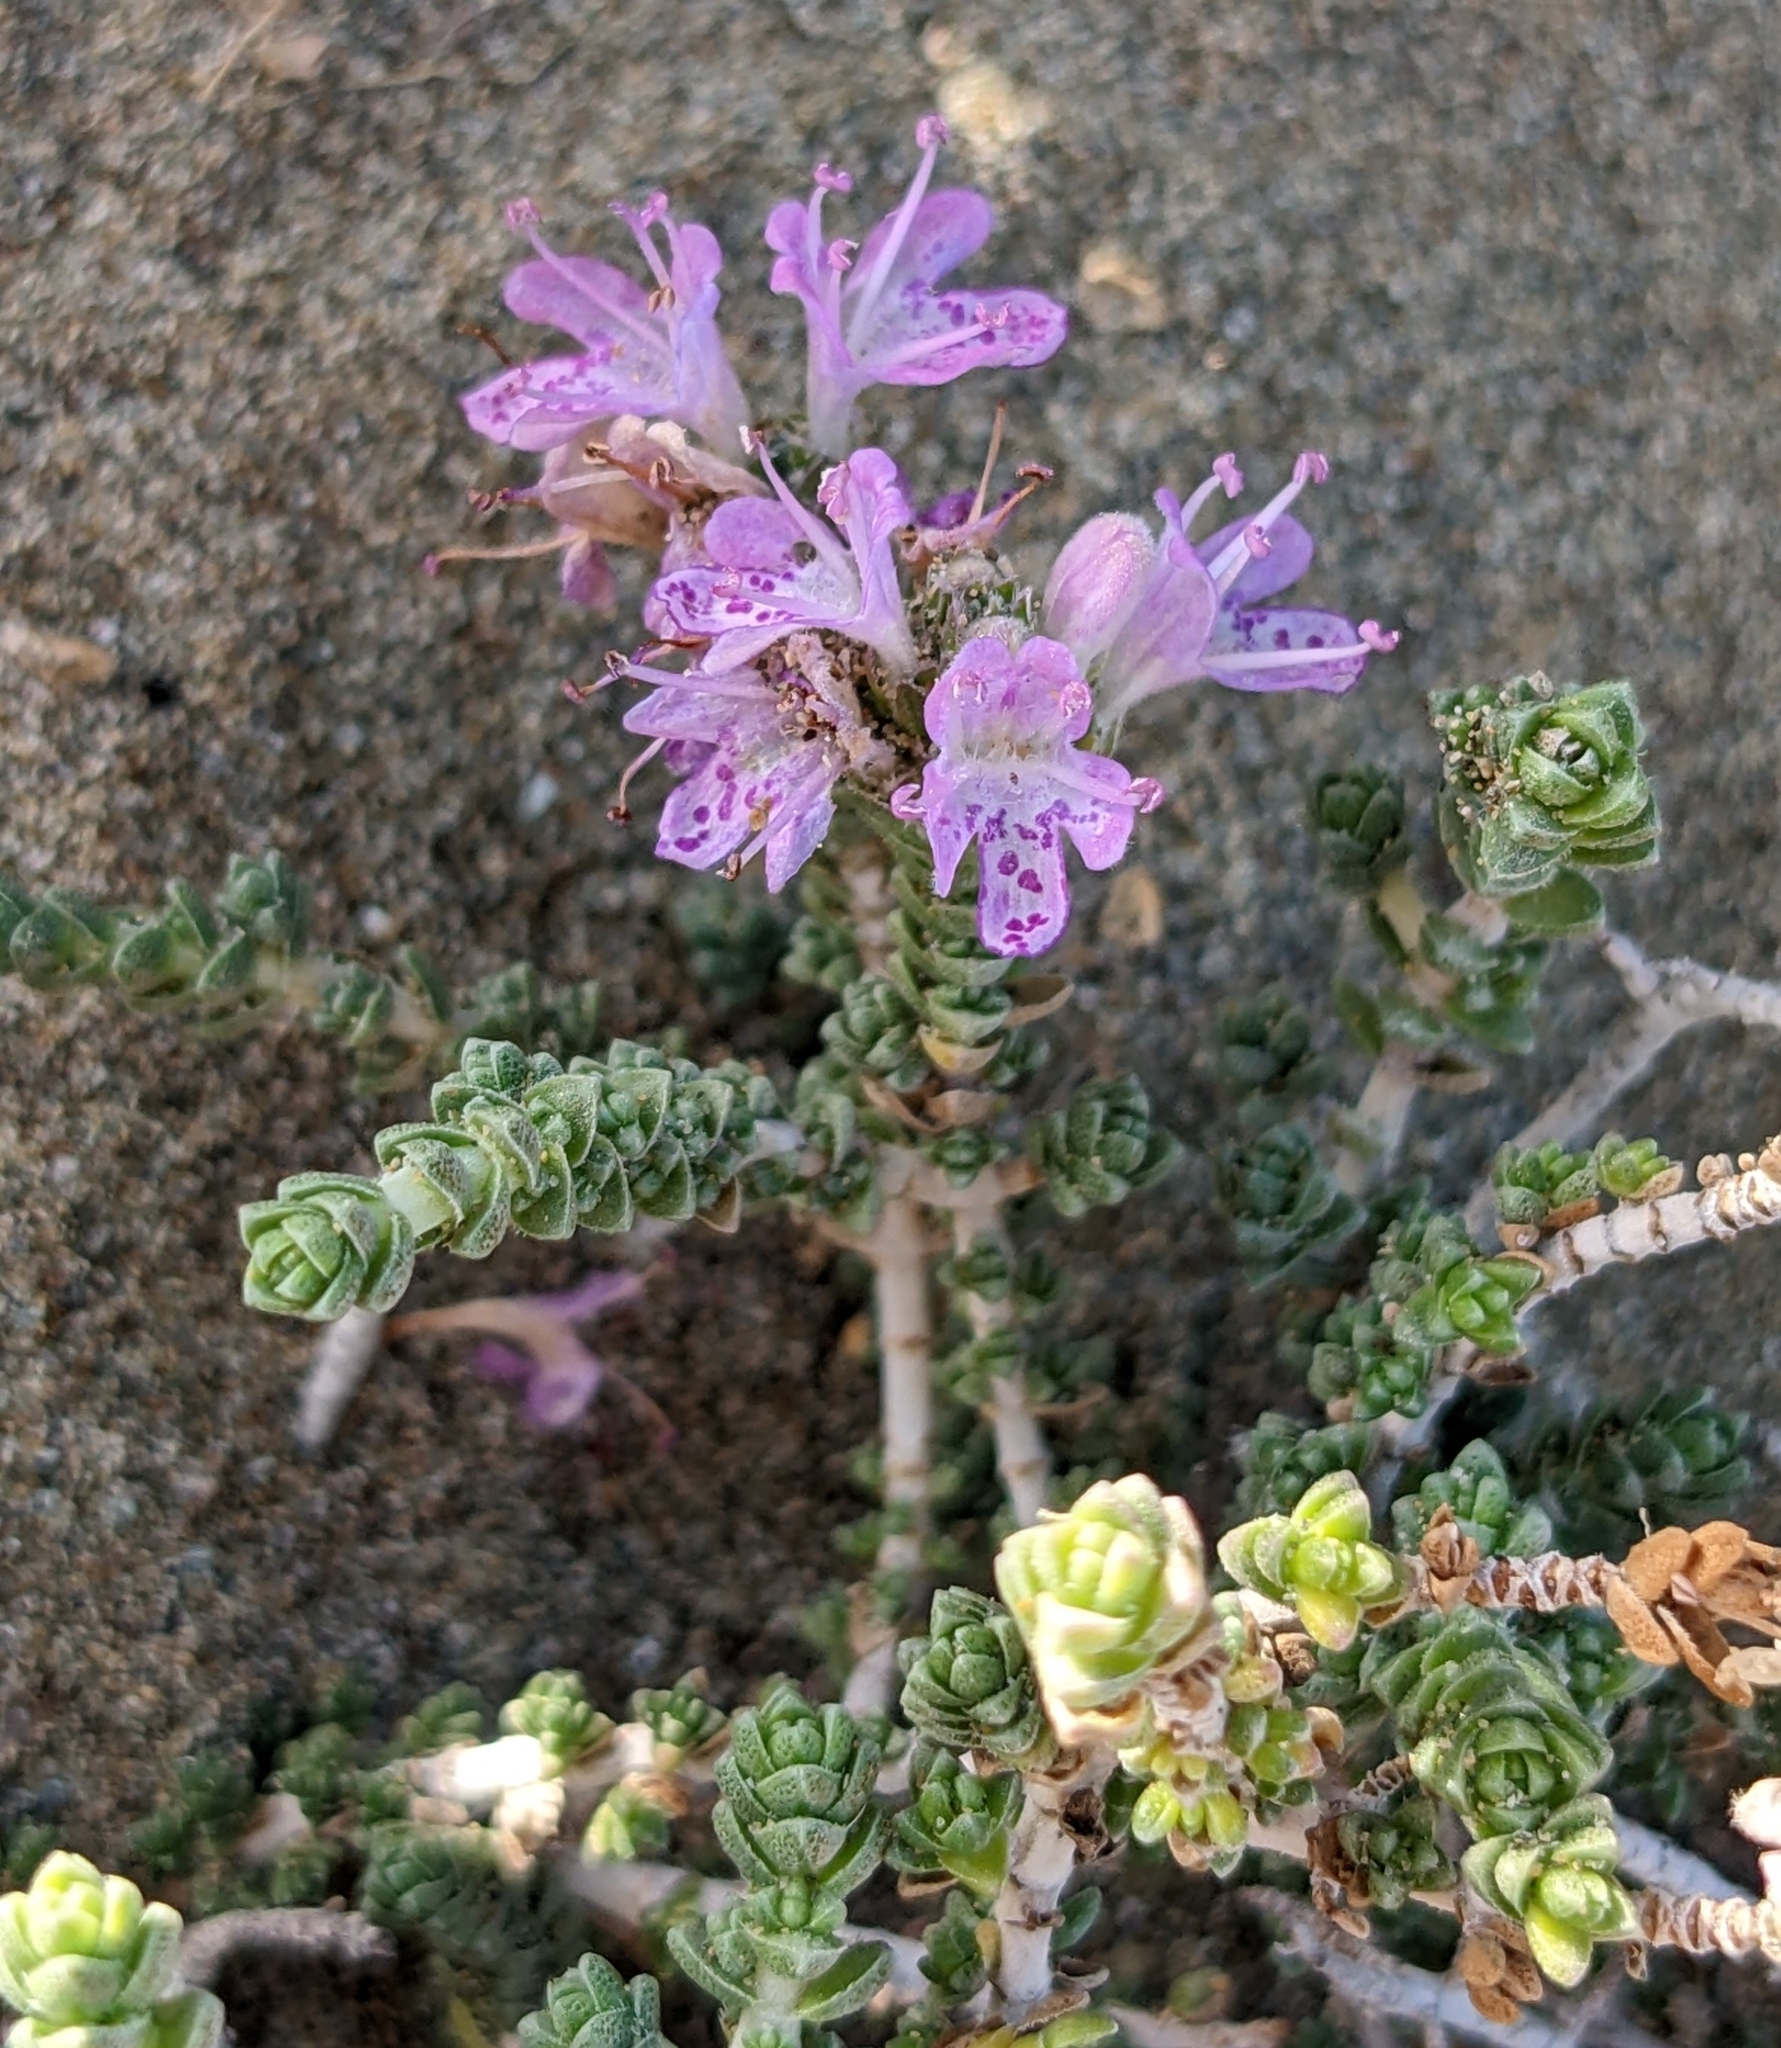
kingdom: Plantae
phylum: Tracheophyta
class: Magnoliopsida
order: Lamiales
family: Lamiaceae
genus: Thymbra
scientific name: Thymbra capitata
